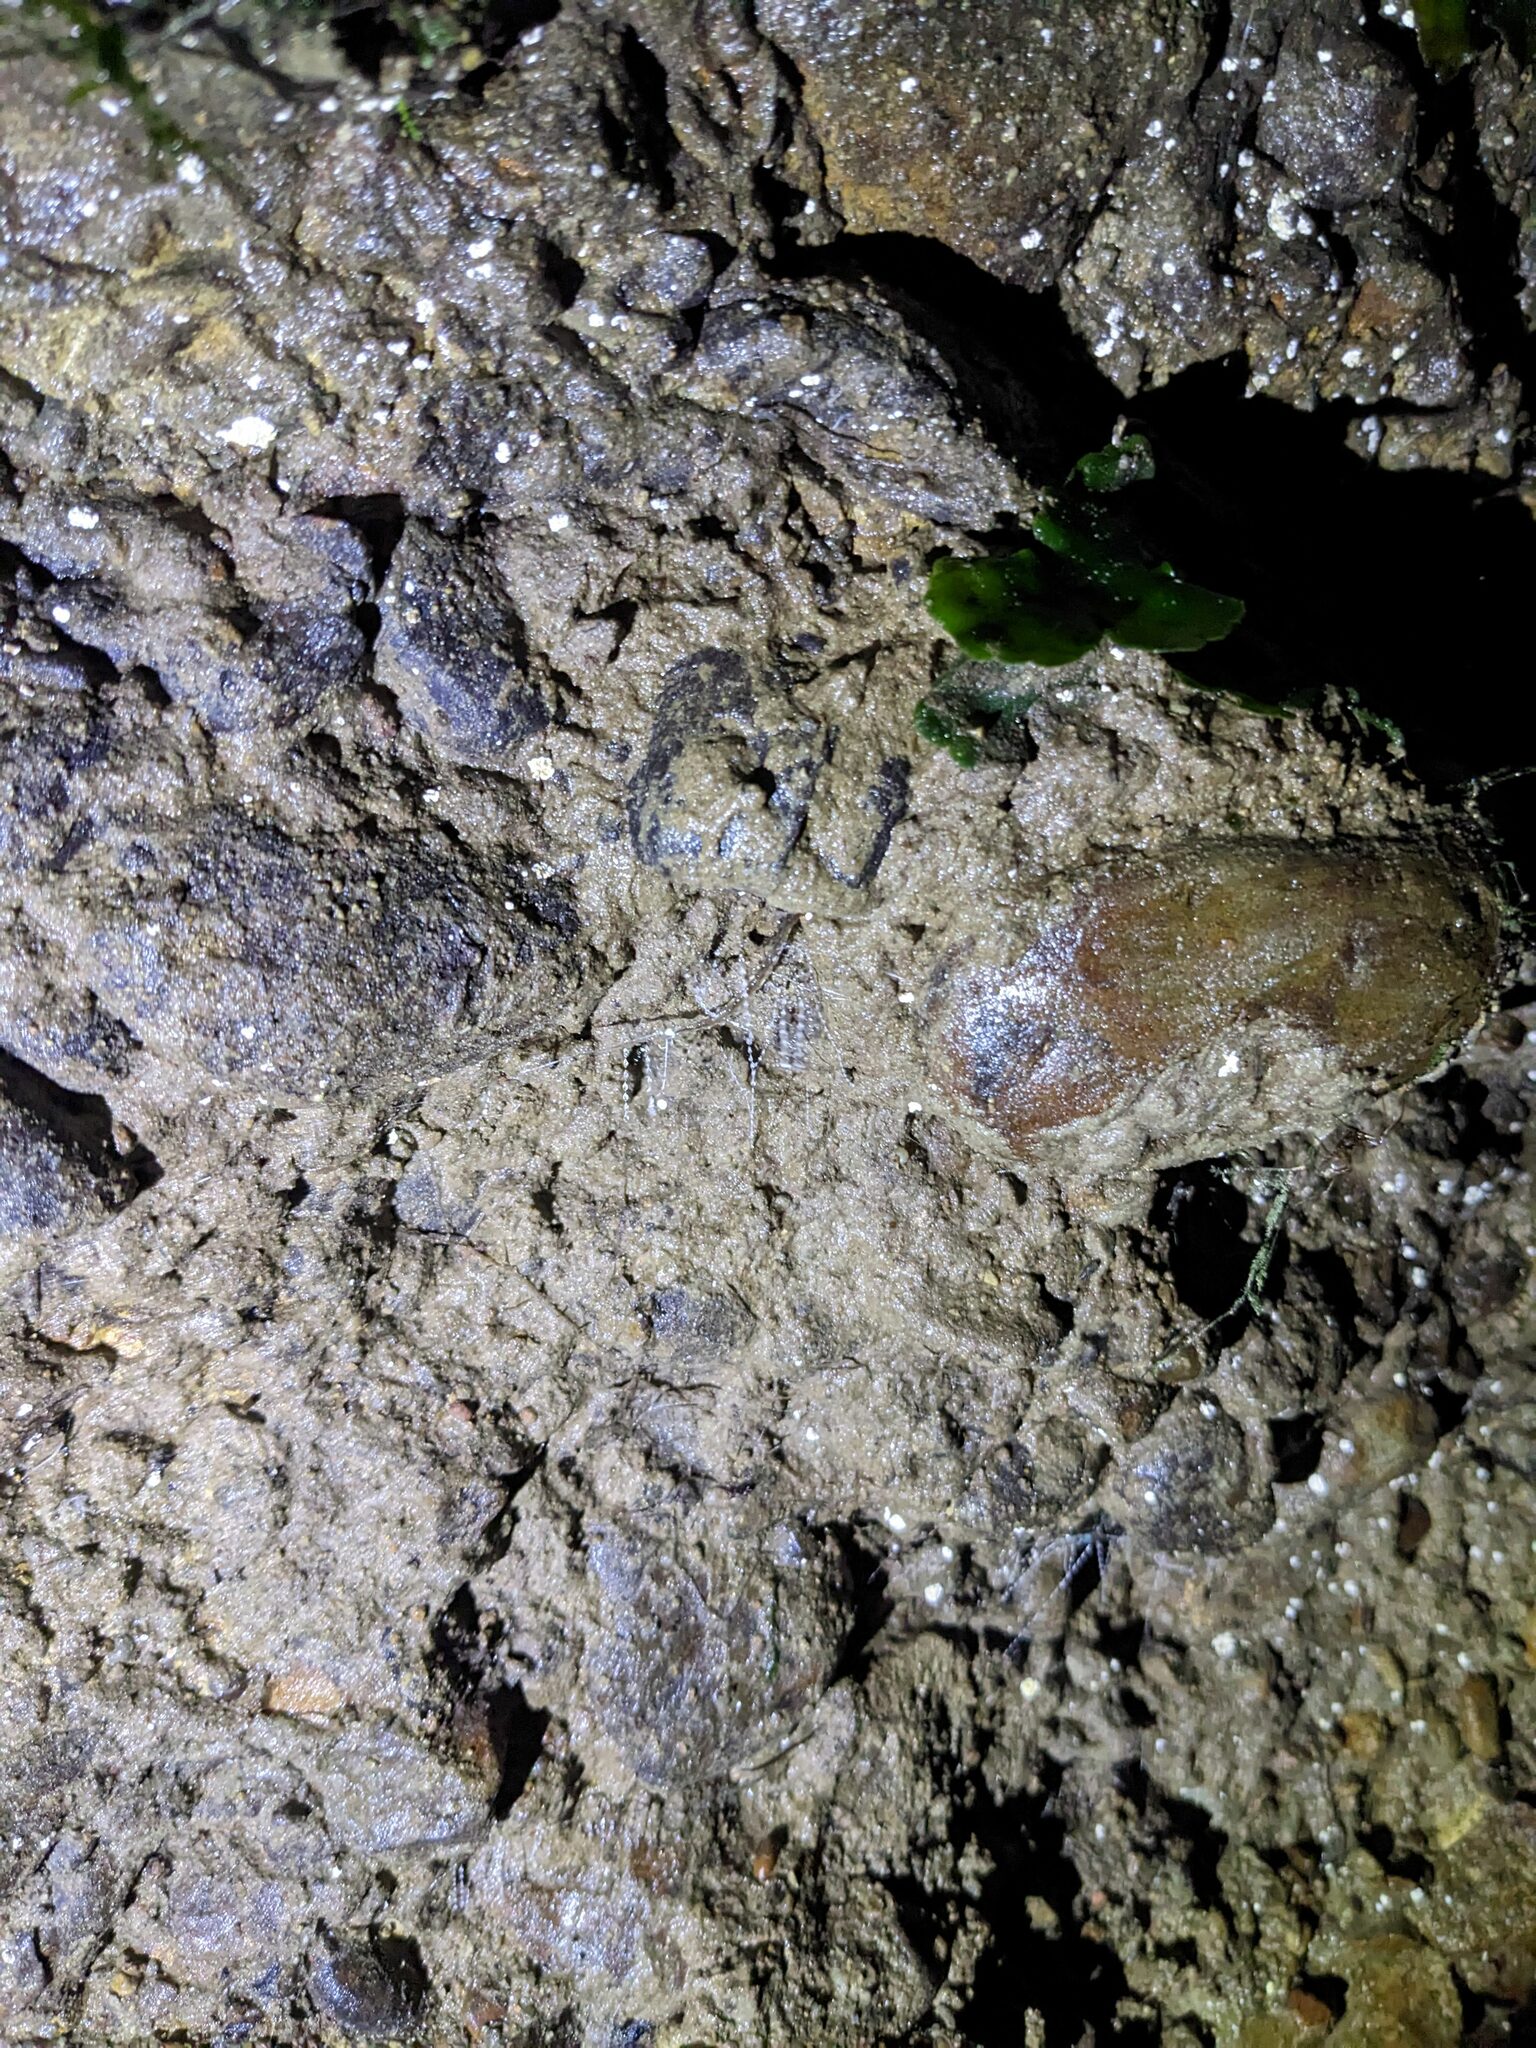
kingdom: Animalia
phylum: Arthropoda
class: Insecta
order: Diptera
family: Keroplatidae
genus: Arachnocampa
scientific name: Arachnocampa luminosa
